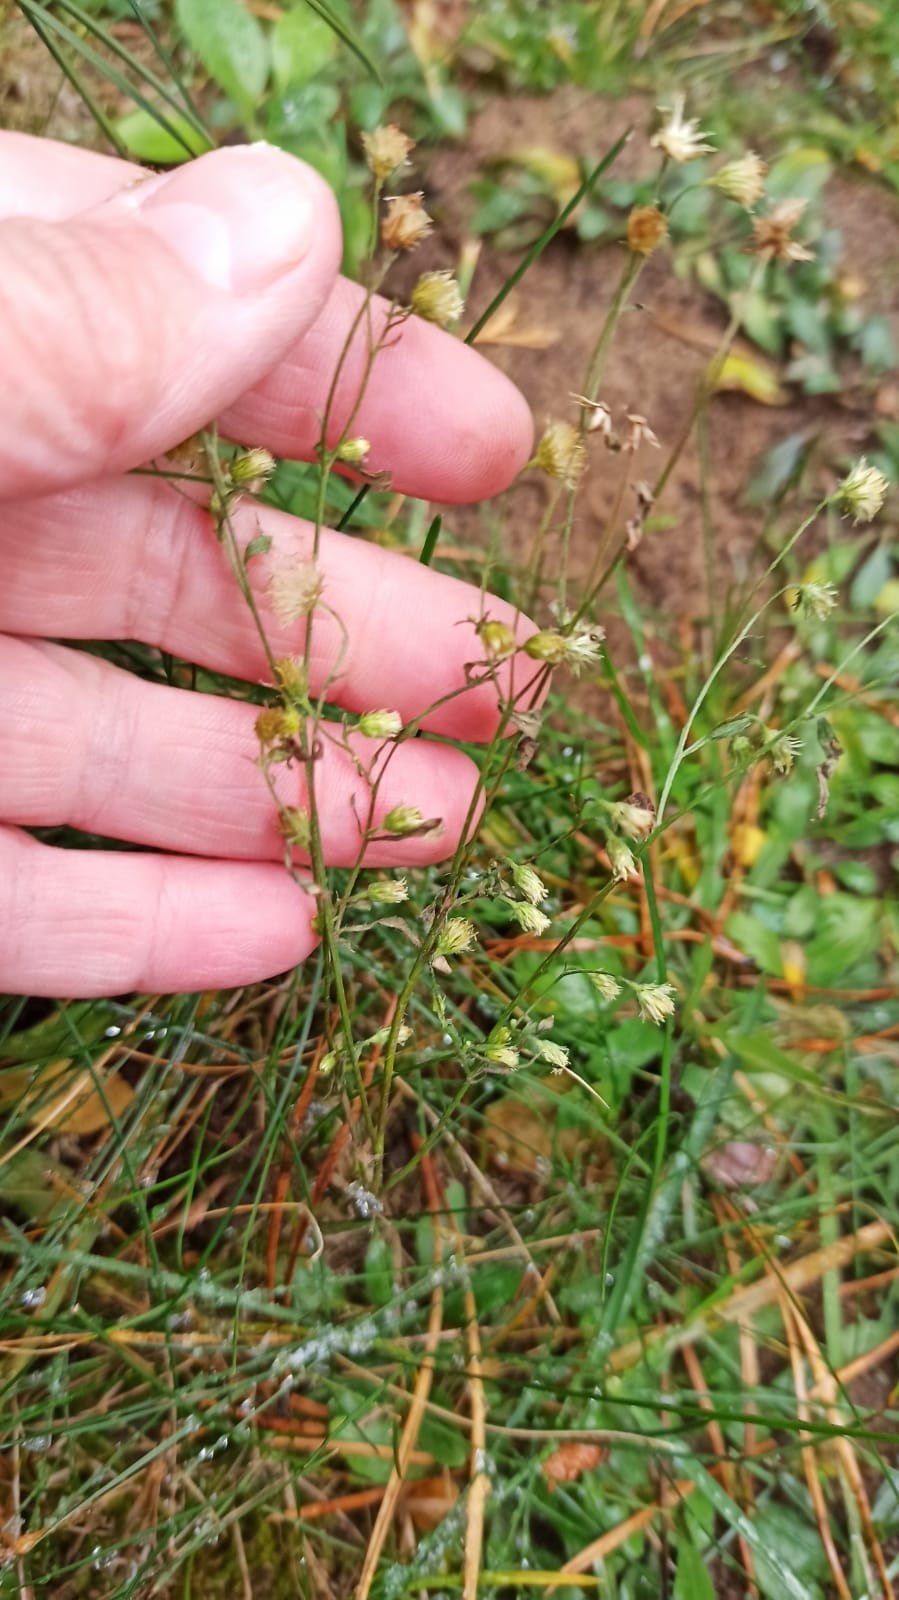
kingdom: Plantae
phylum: Tracheophyta
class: Magnoliopsida
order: Asterales
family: Asteraceae
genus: Erigeron
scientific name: Erigeron canadensis
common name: Canadian fleabane
